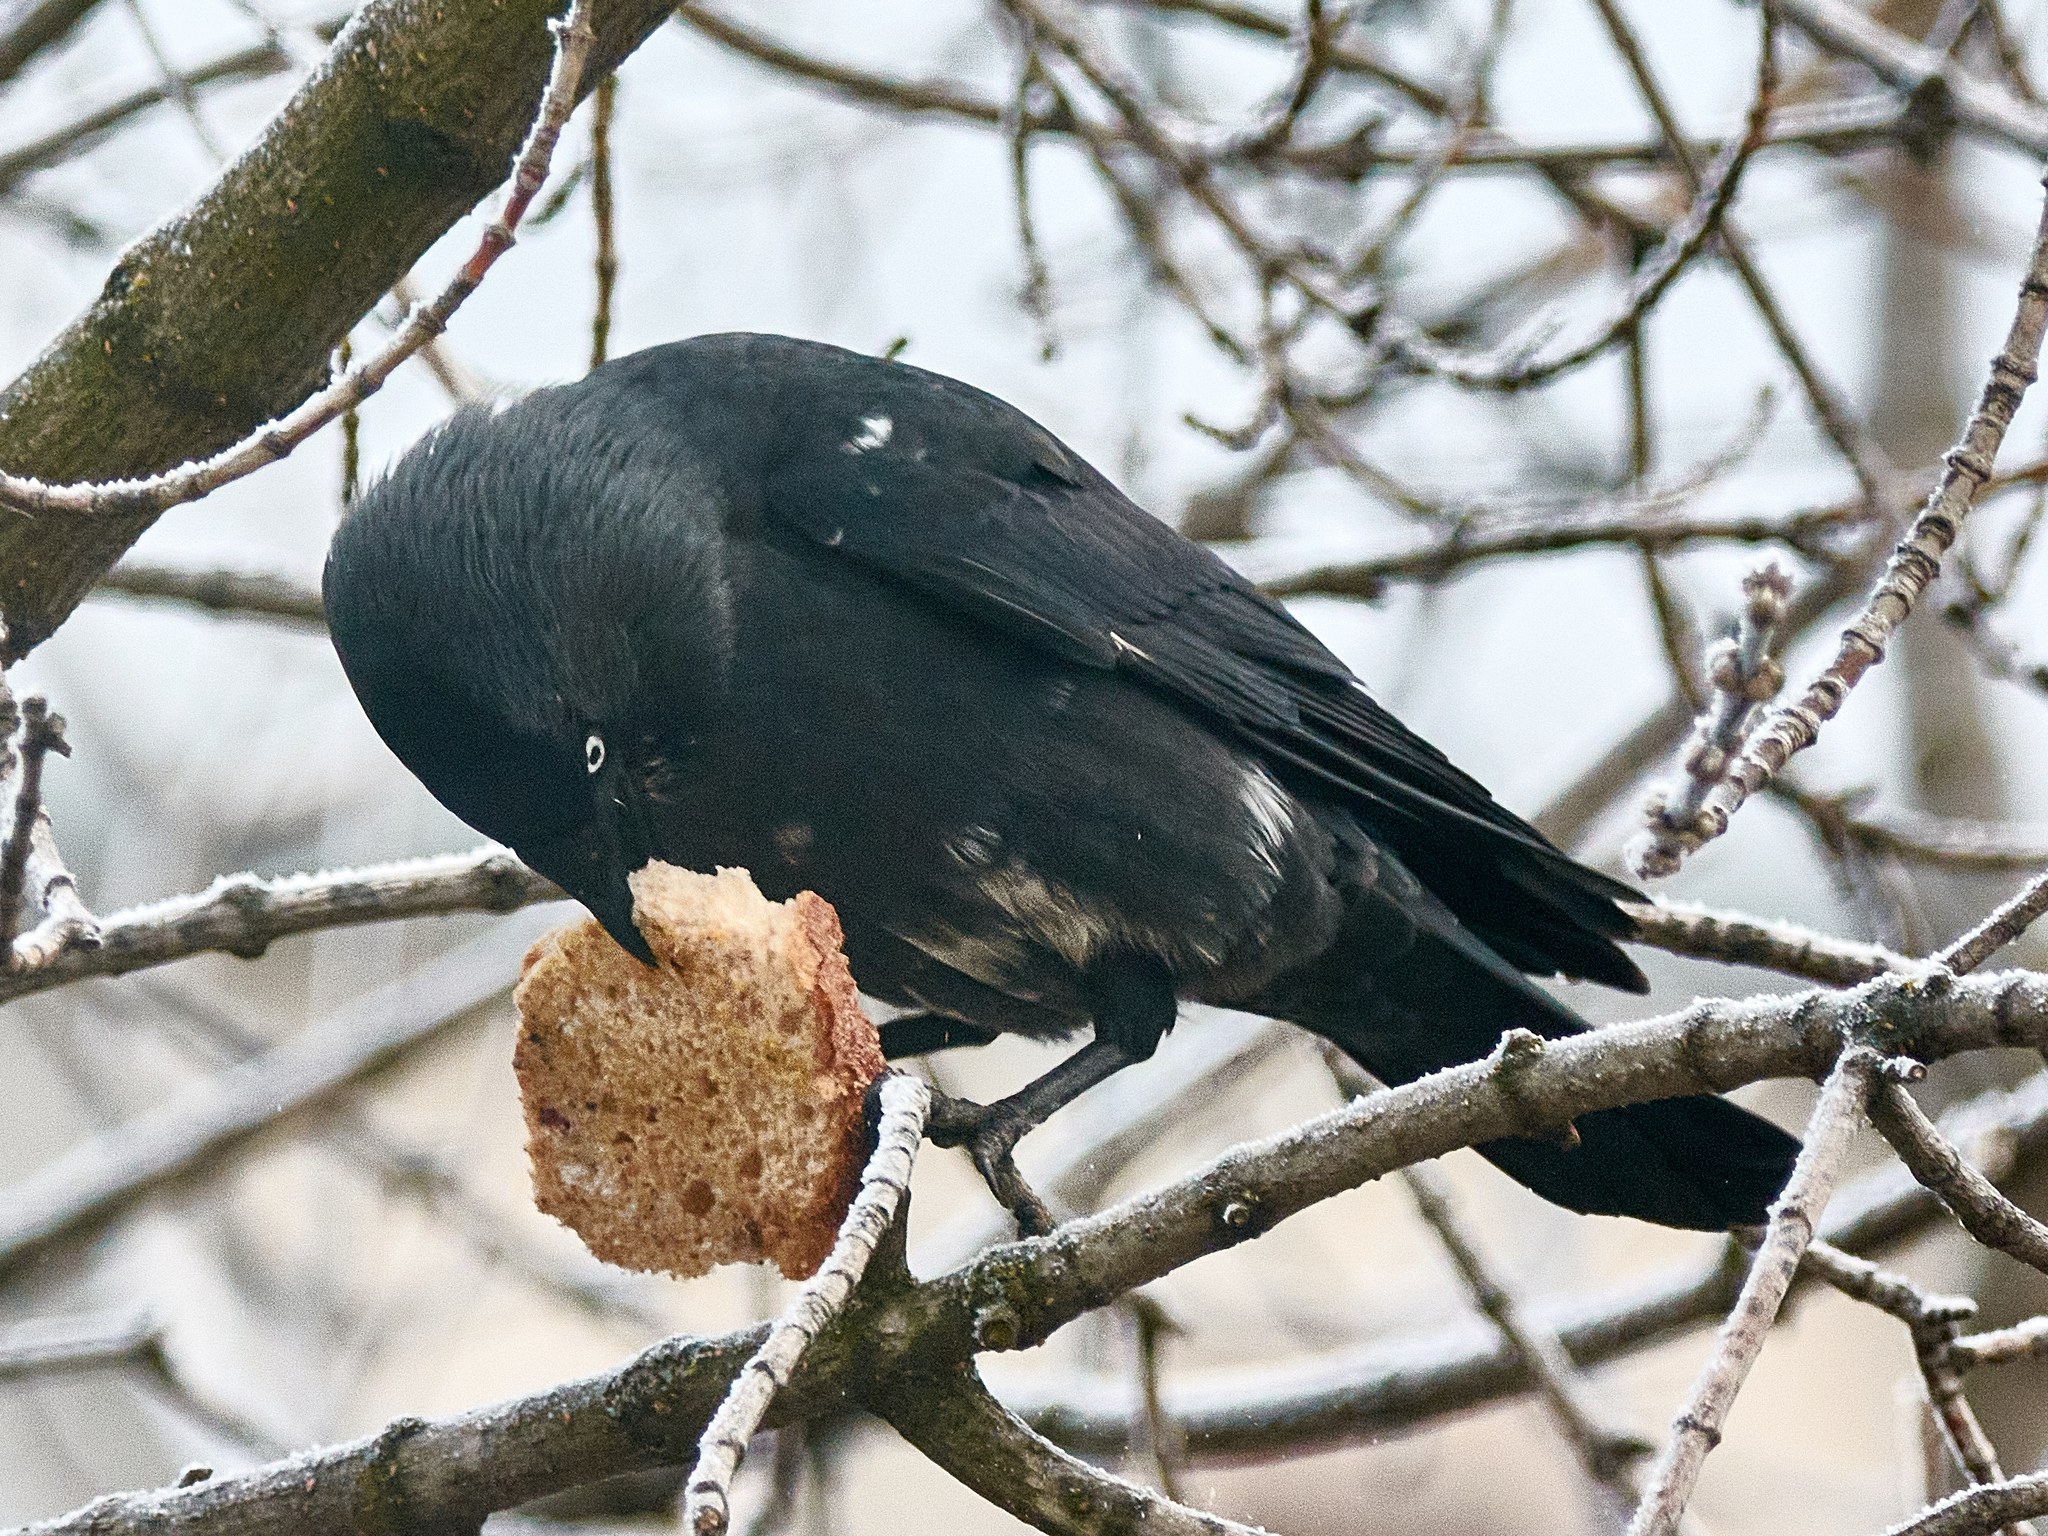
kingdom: Animalia
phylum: Chordata
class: Aves
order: Passeriformes
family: Corvidae
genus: Coloeus
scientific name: Coloeus monedula
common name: Western jackdaw
